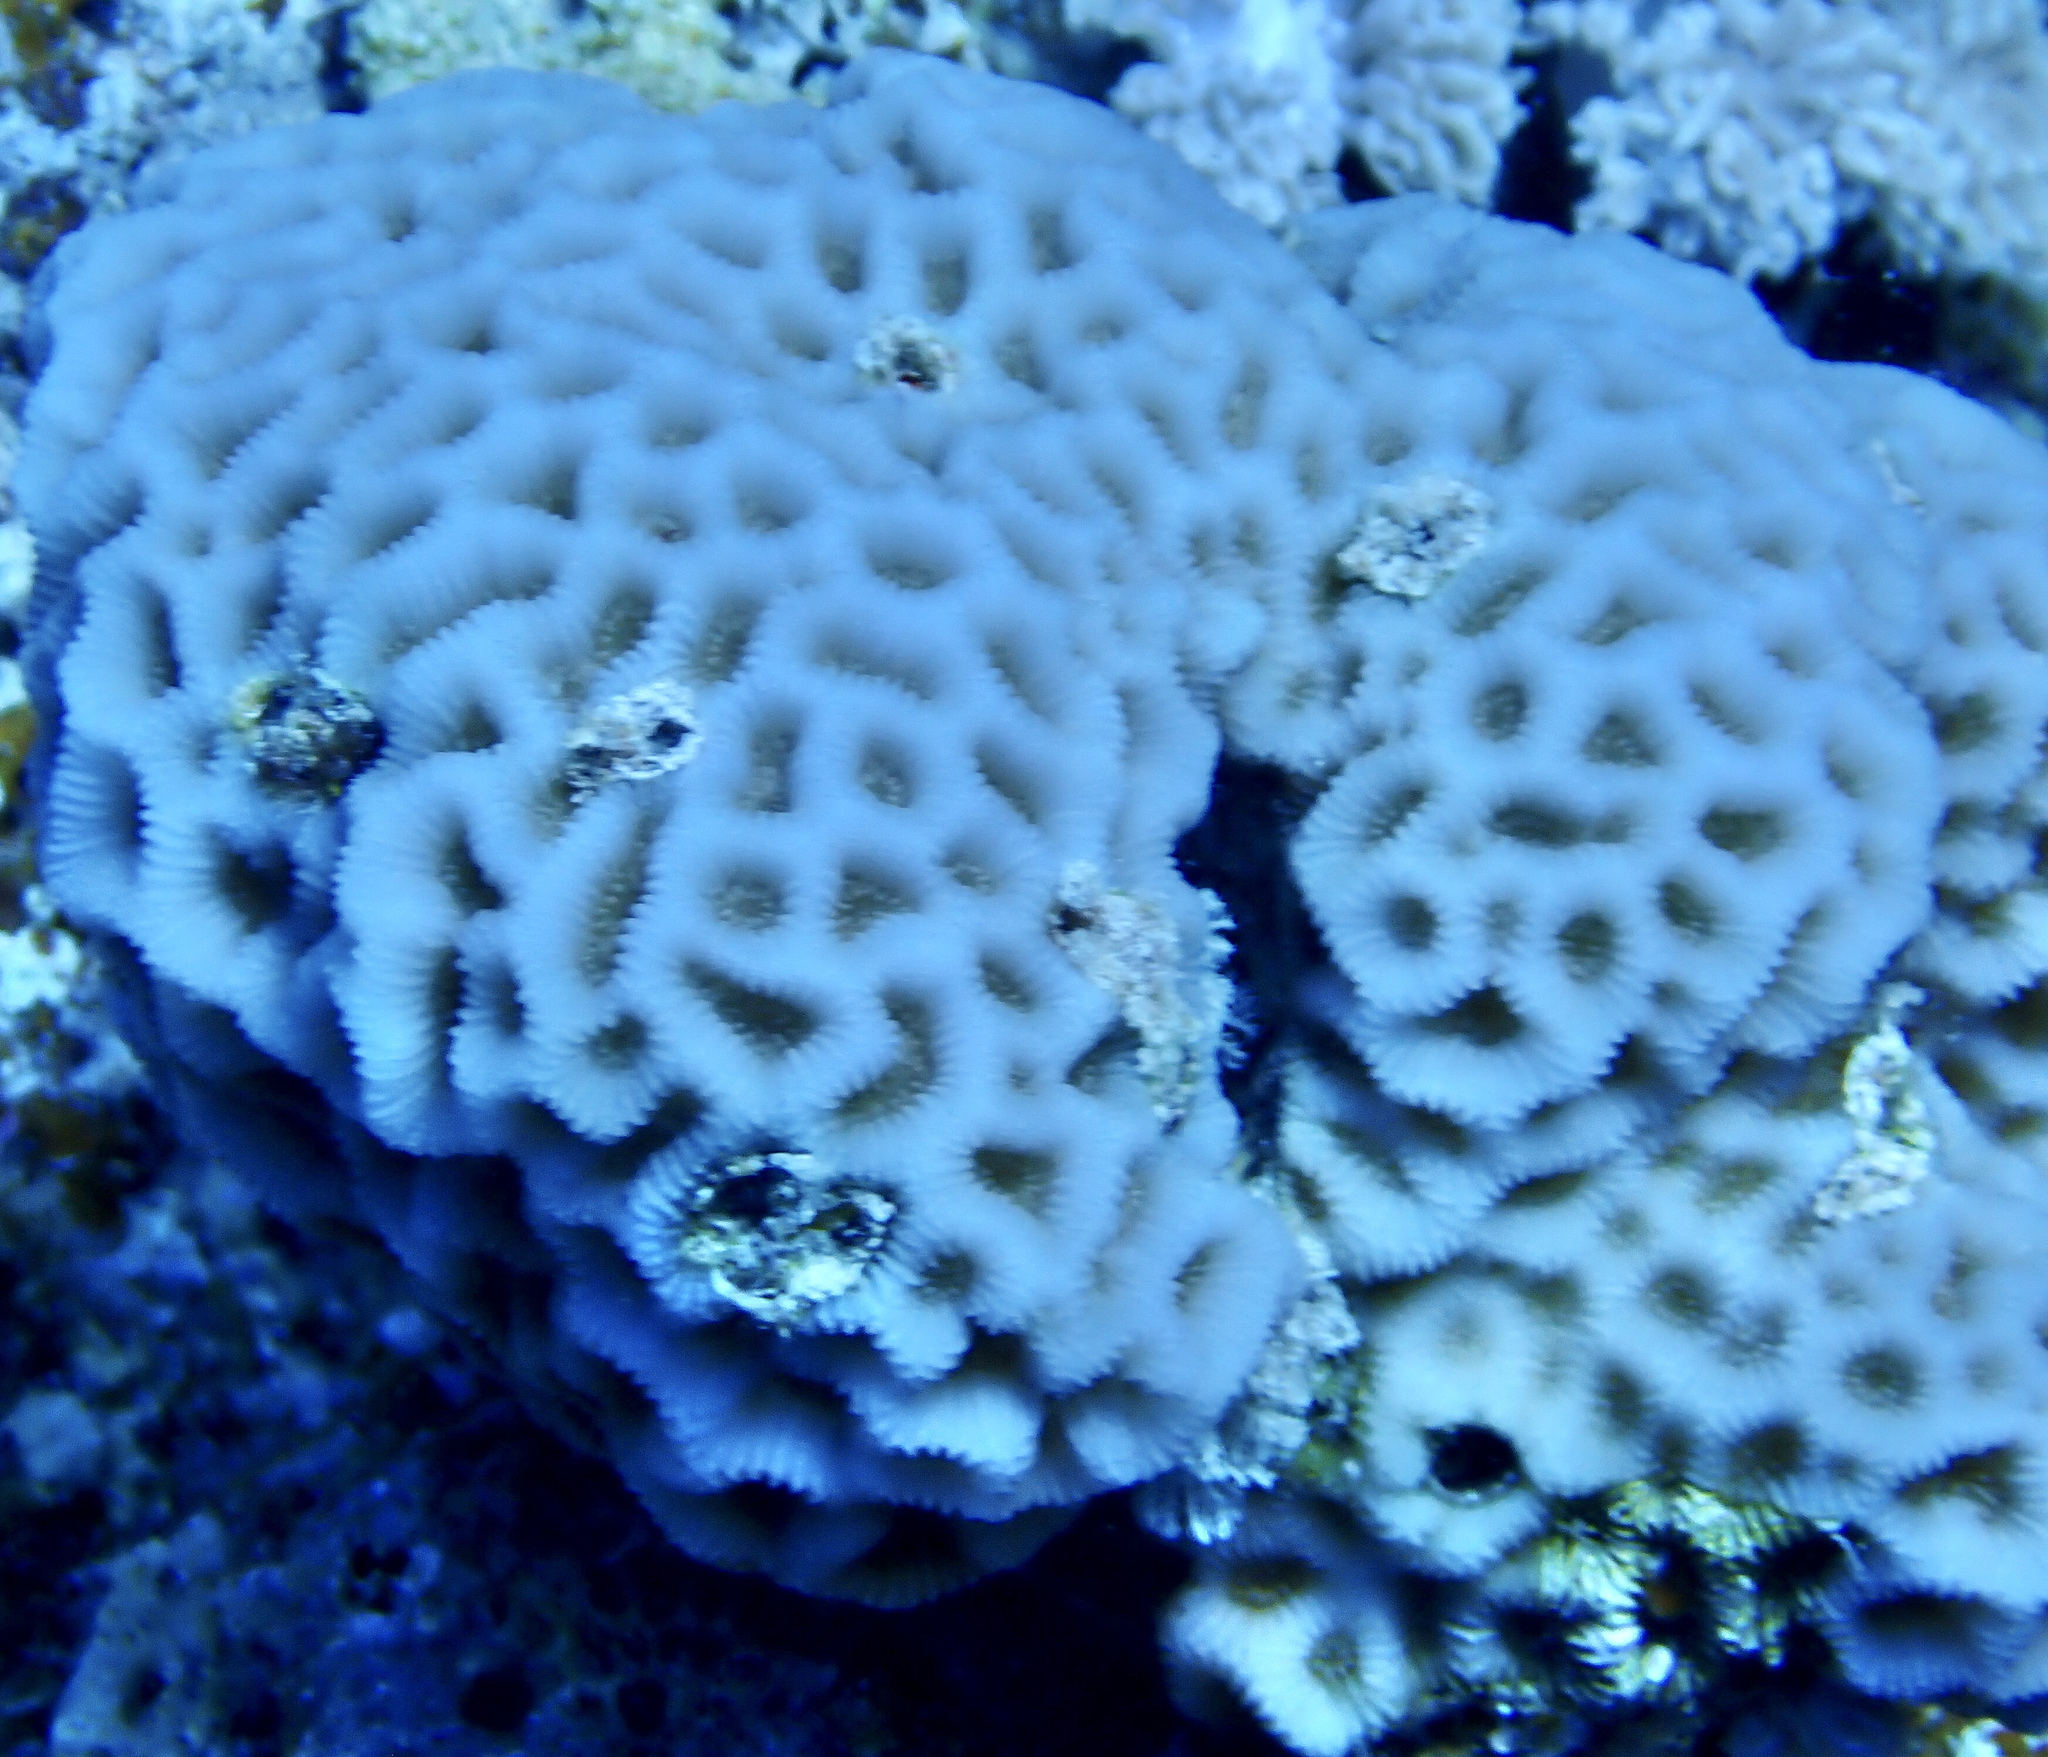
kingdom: Animalia
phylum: Cnidaria
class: Anthozoa
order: Scleractinia
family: Merulinidae
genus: Goniastrea
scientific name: Goniastrea pectinata
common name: Lesser star coral
